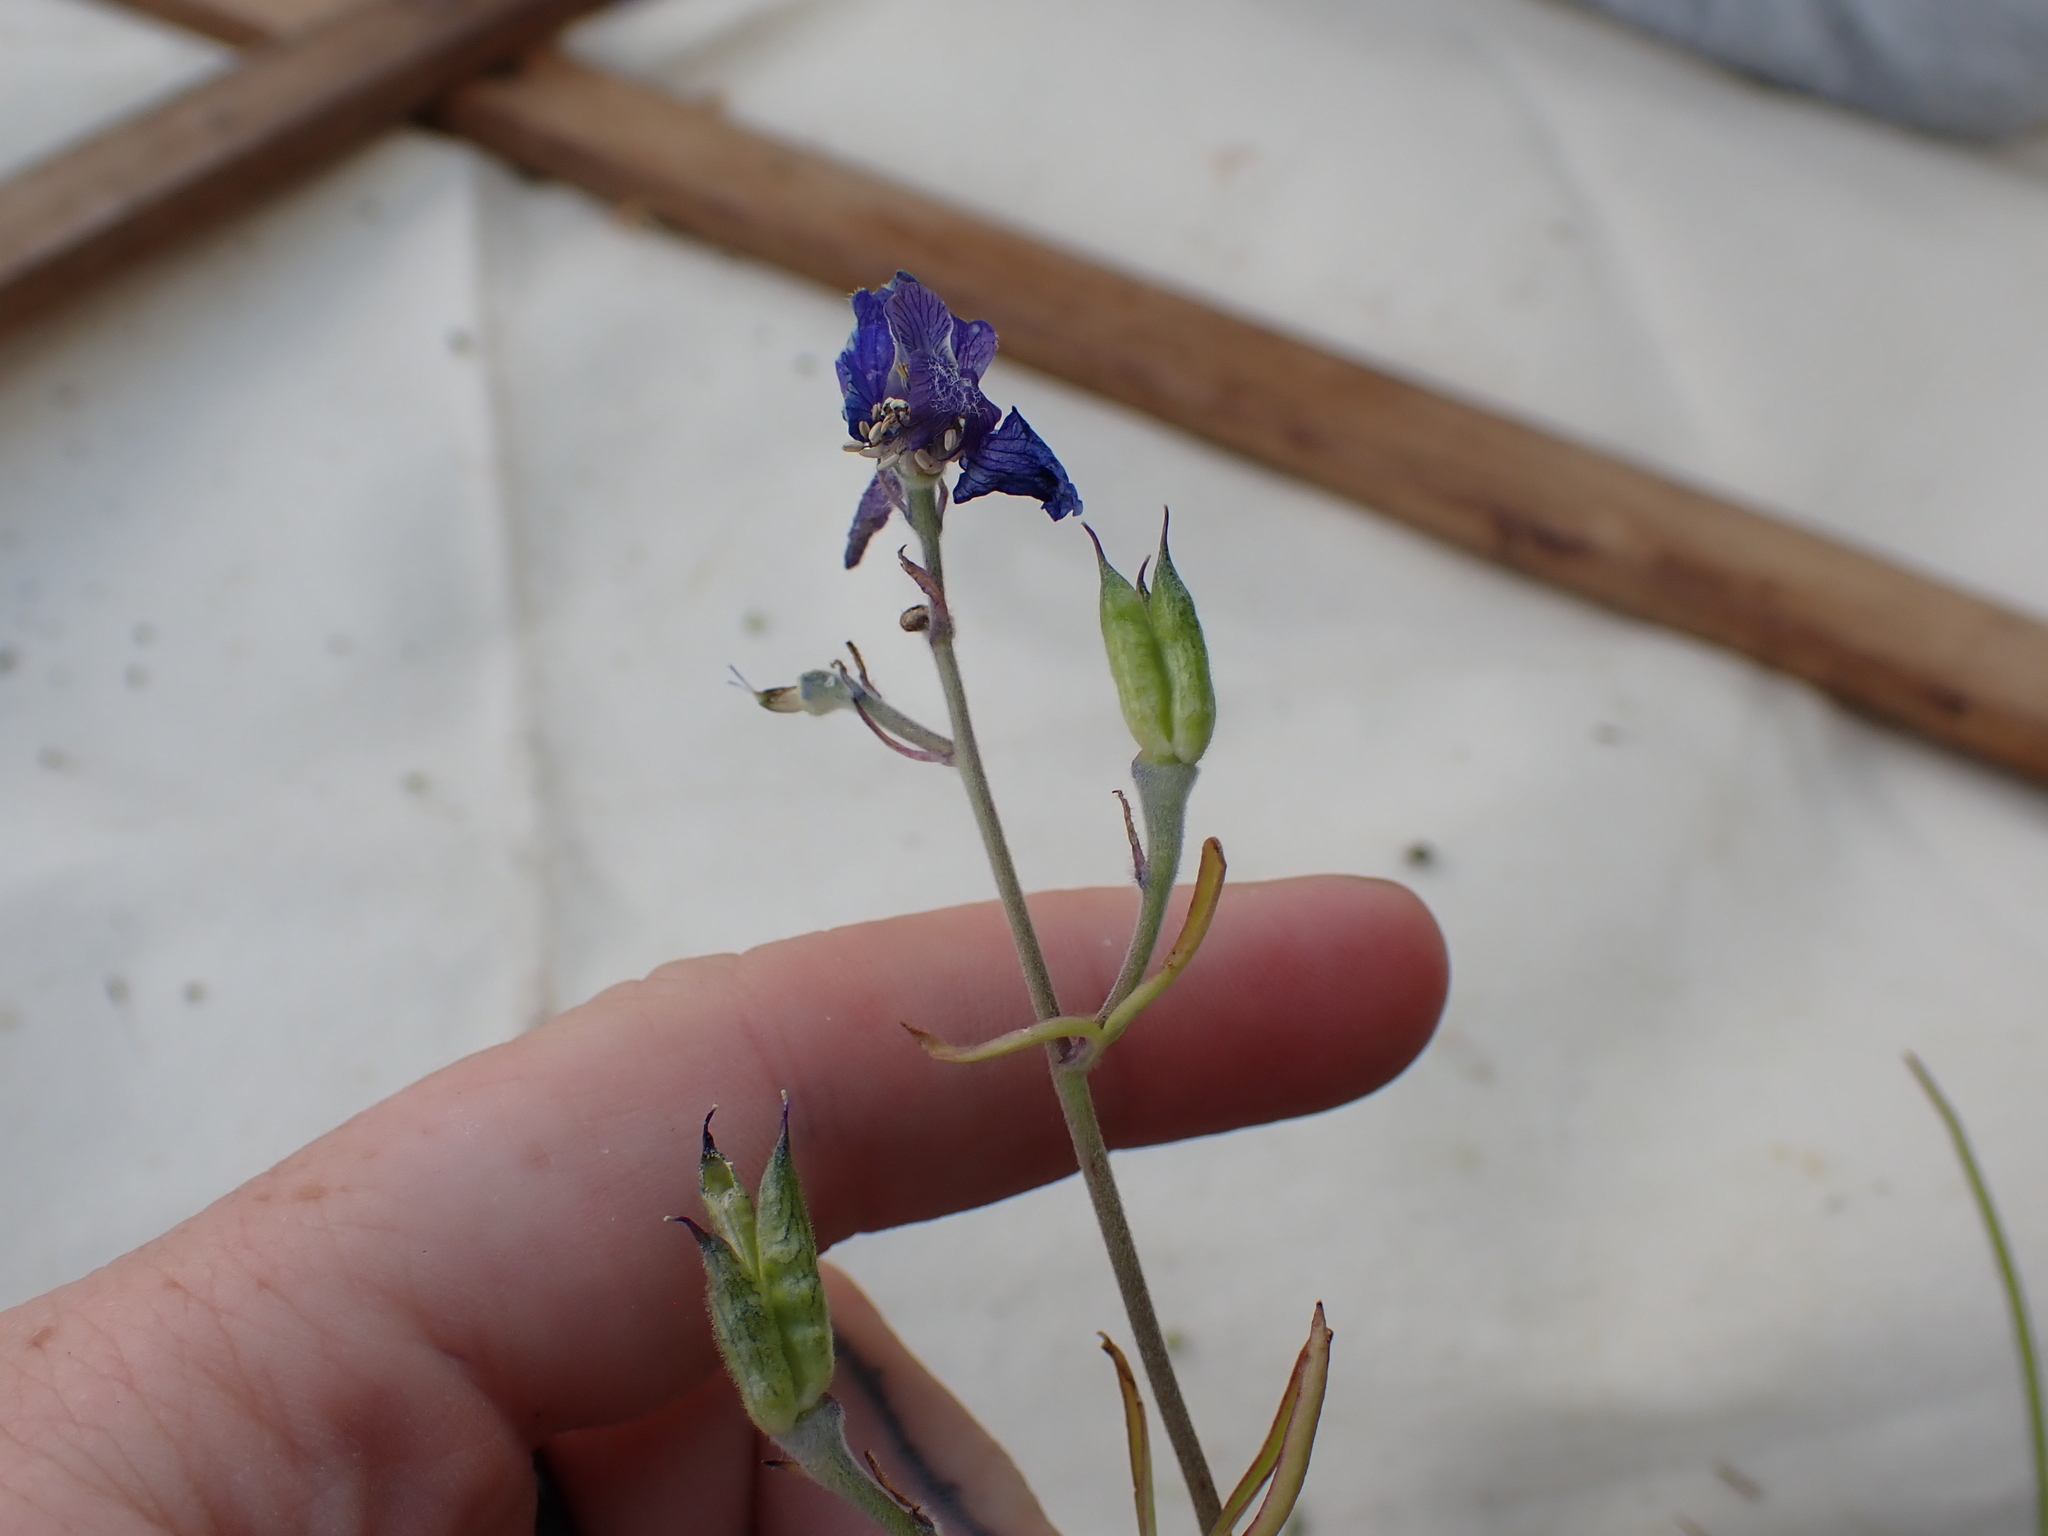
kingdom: Plantae
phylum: Tracheophyta
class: Magnoliopsida
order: Ranunculales
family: Ranunculaceae
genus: Delphinium
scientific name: Delphinium nuttallianum
